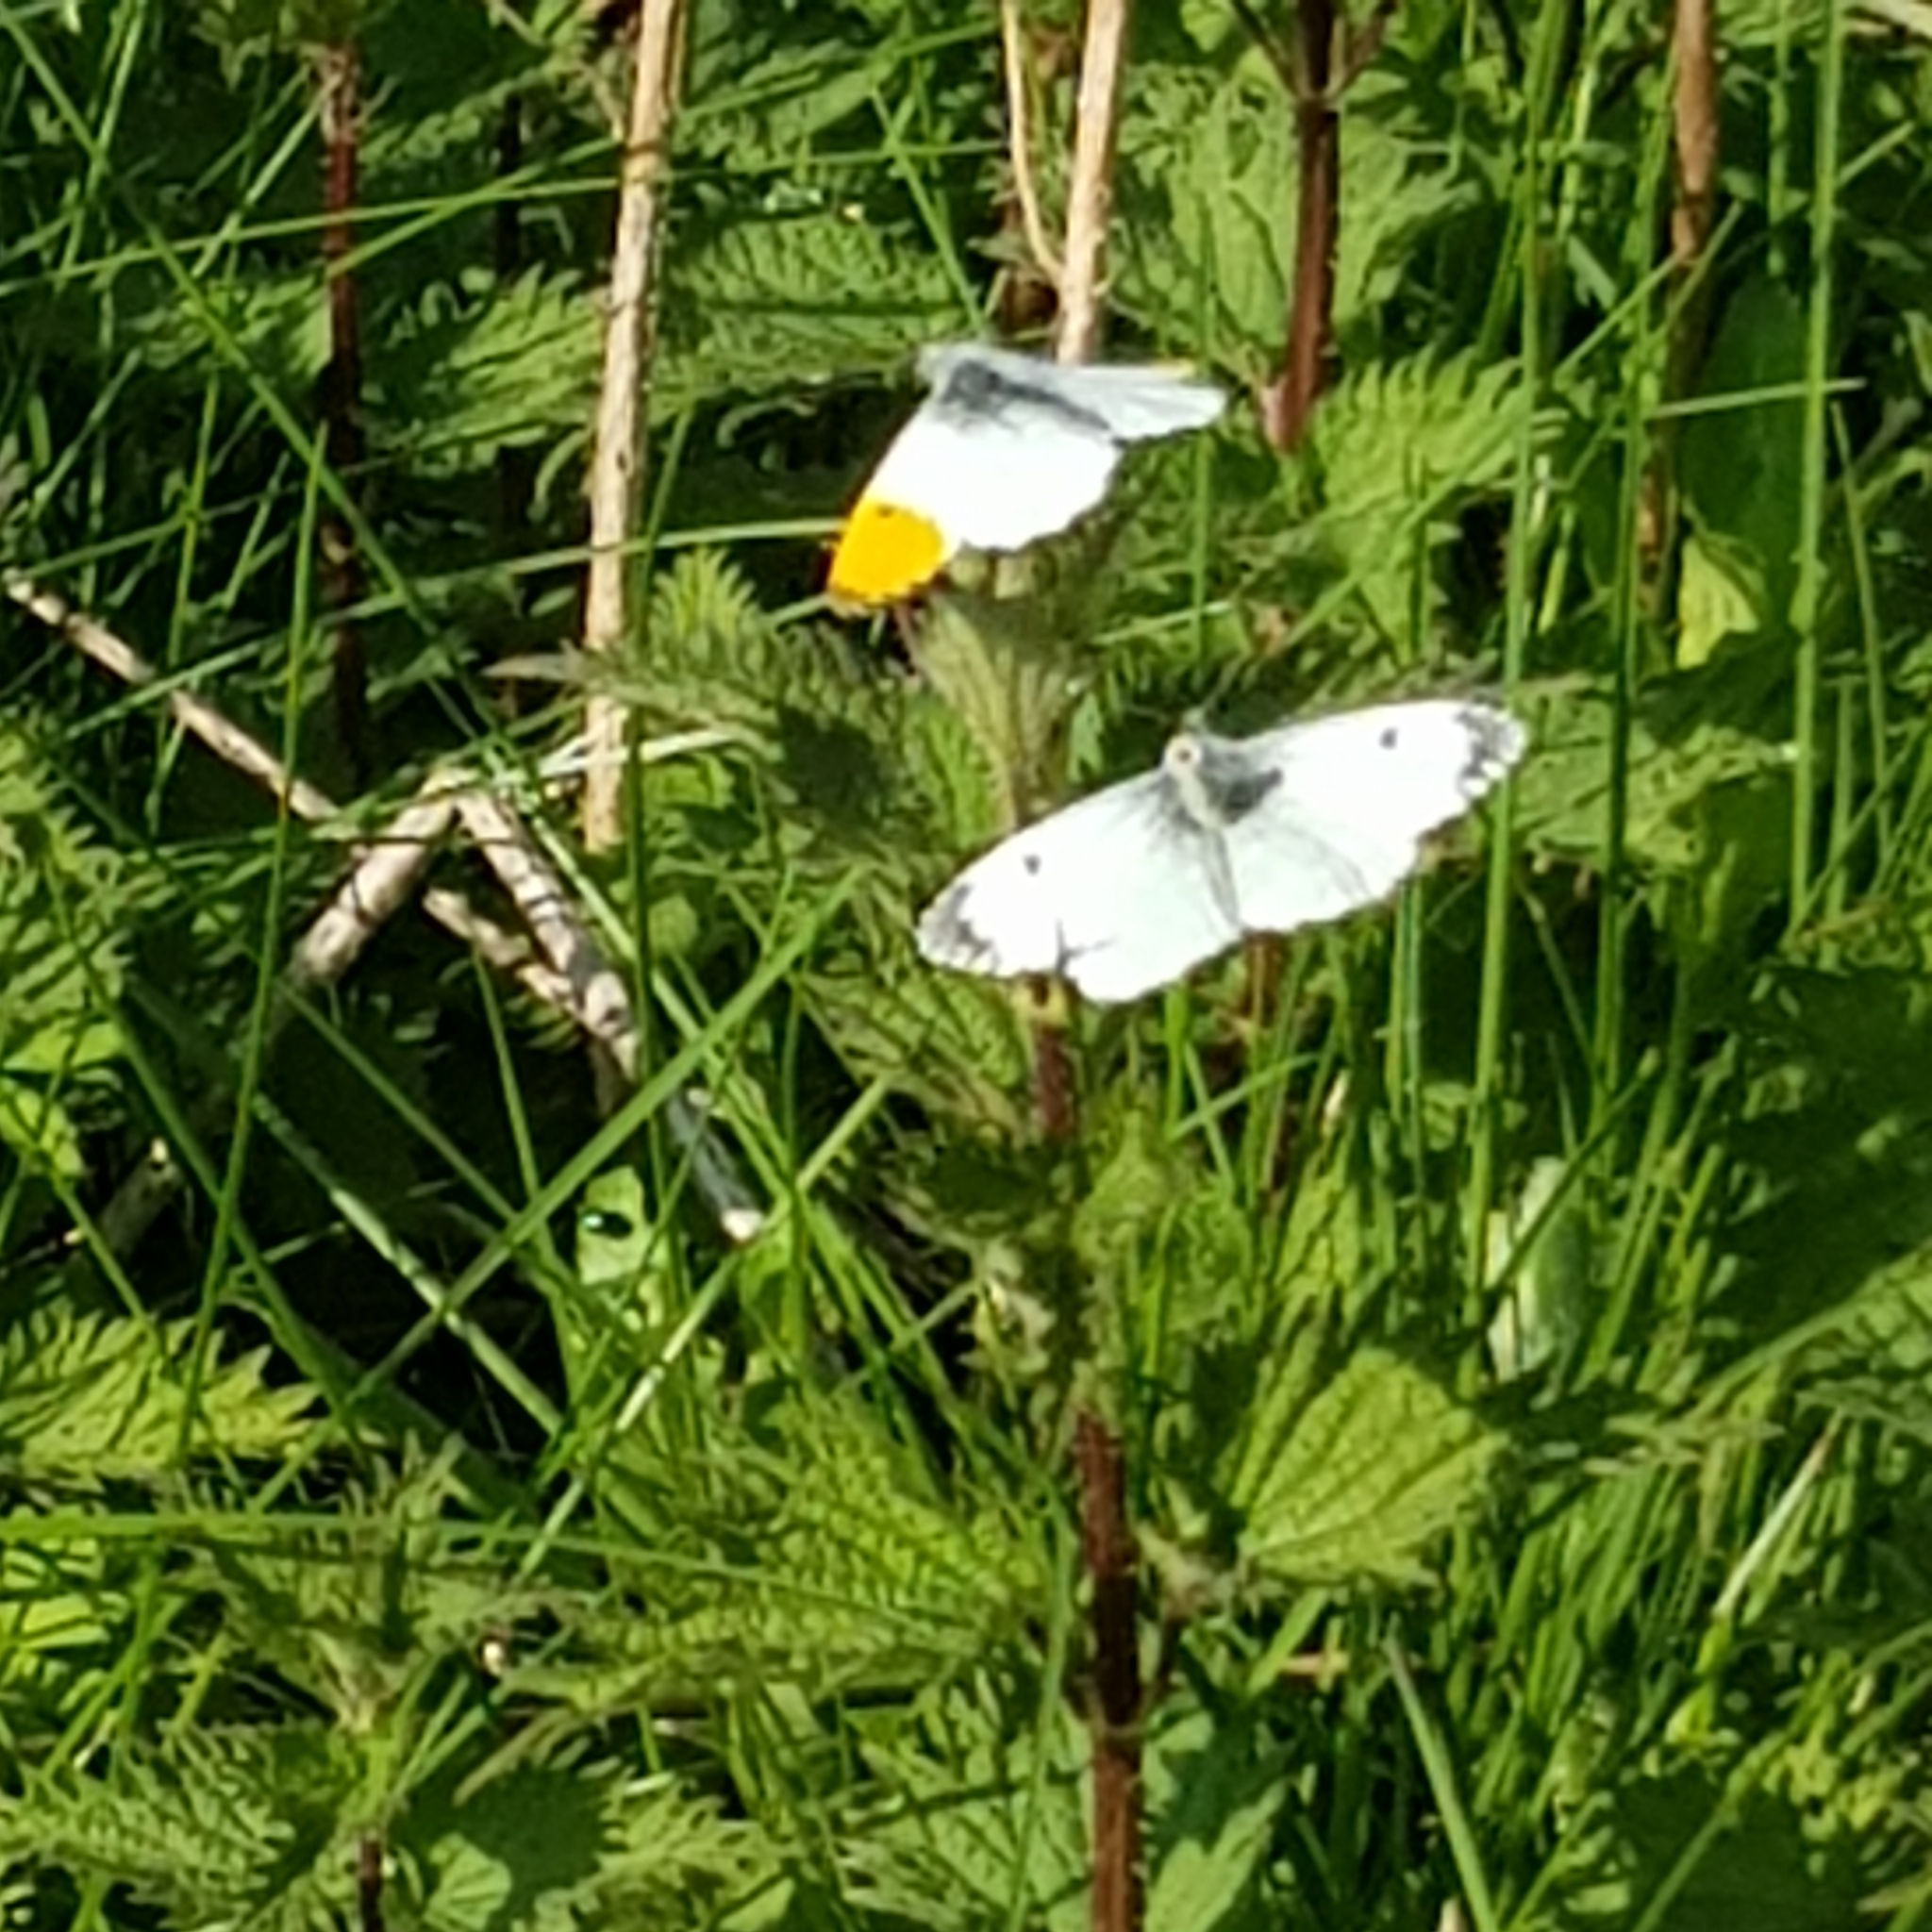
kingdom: Animalia
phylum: Arthropoda
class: Insecta
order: Lepidoptera
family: Pieridae
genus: Anthocharis
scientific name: Anthocharis cardamines
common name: Orange-tip
